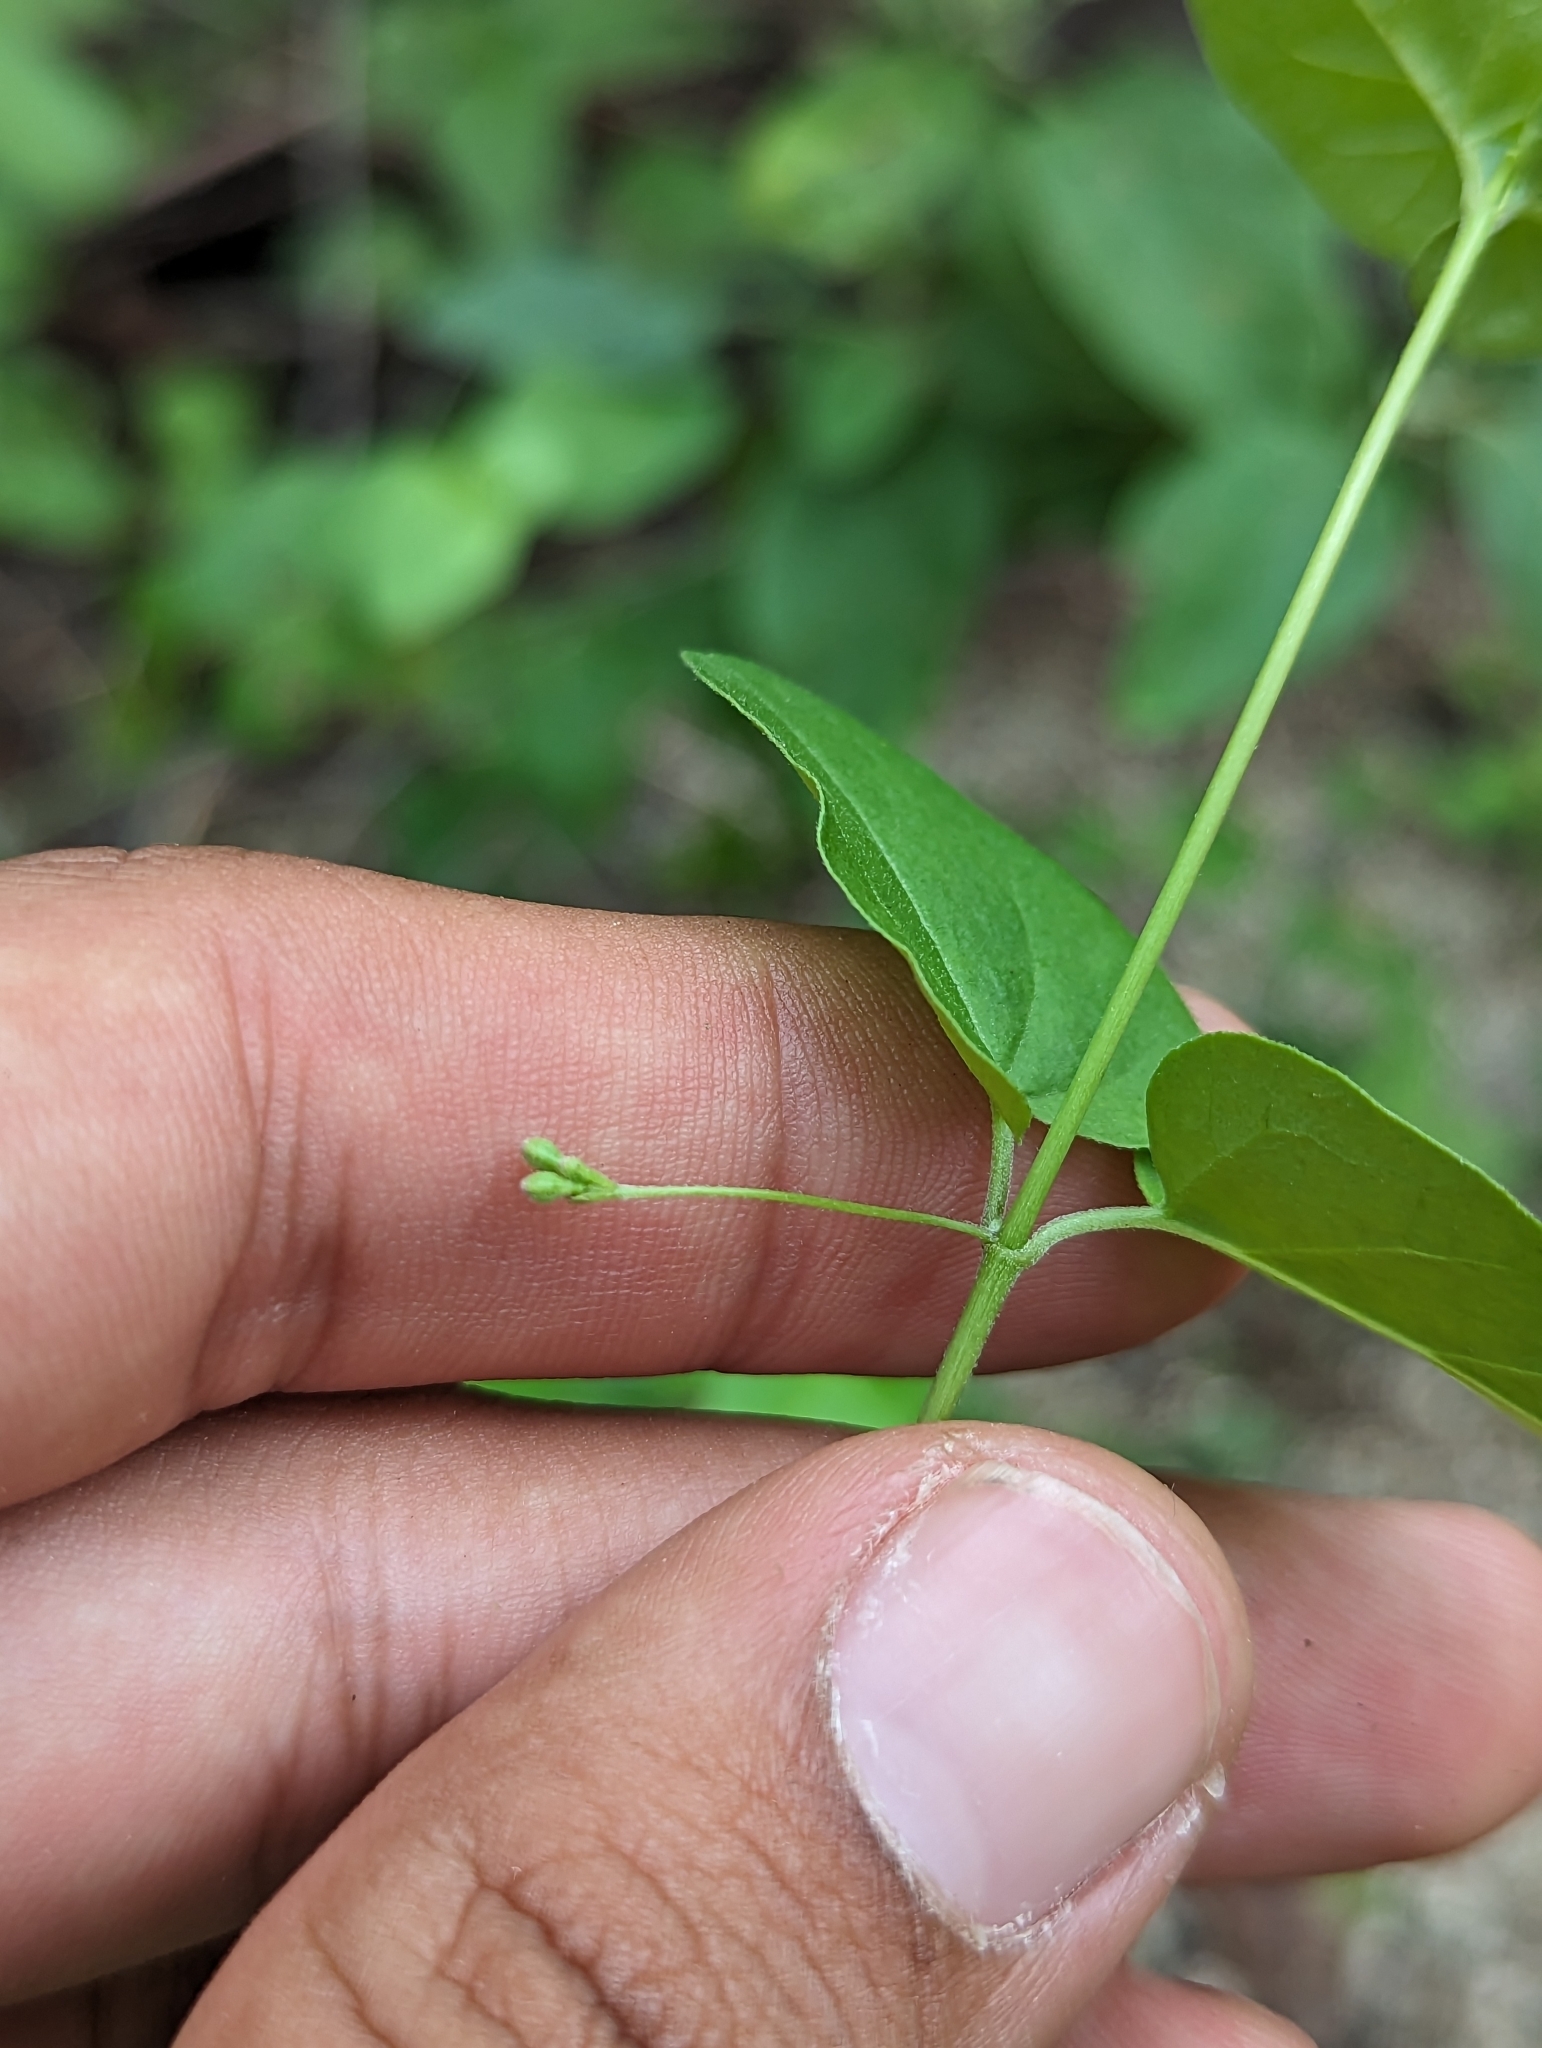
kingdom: Plantae
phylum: Tracheophyta
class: Magnoliopsida
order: Caryophyllales
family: Nyctaginaceae
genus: Commicarpus
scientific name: Commicarpus brandegeei
